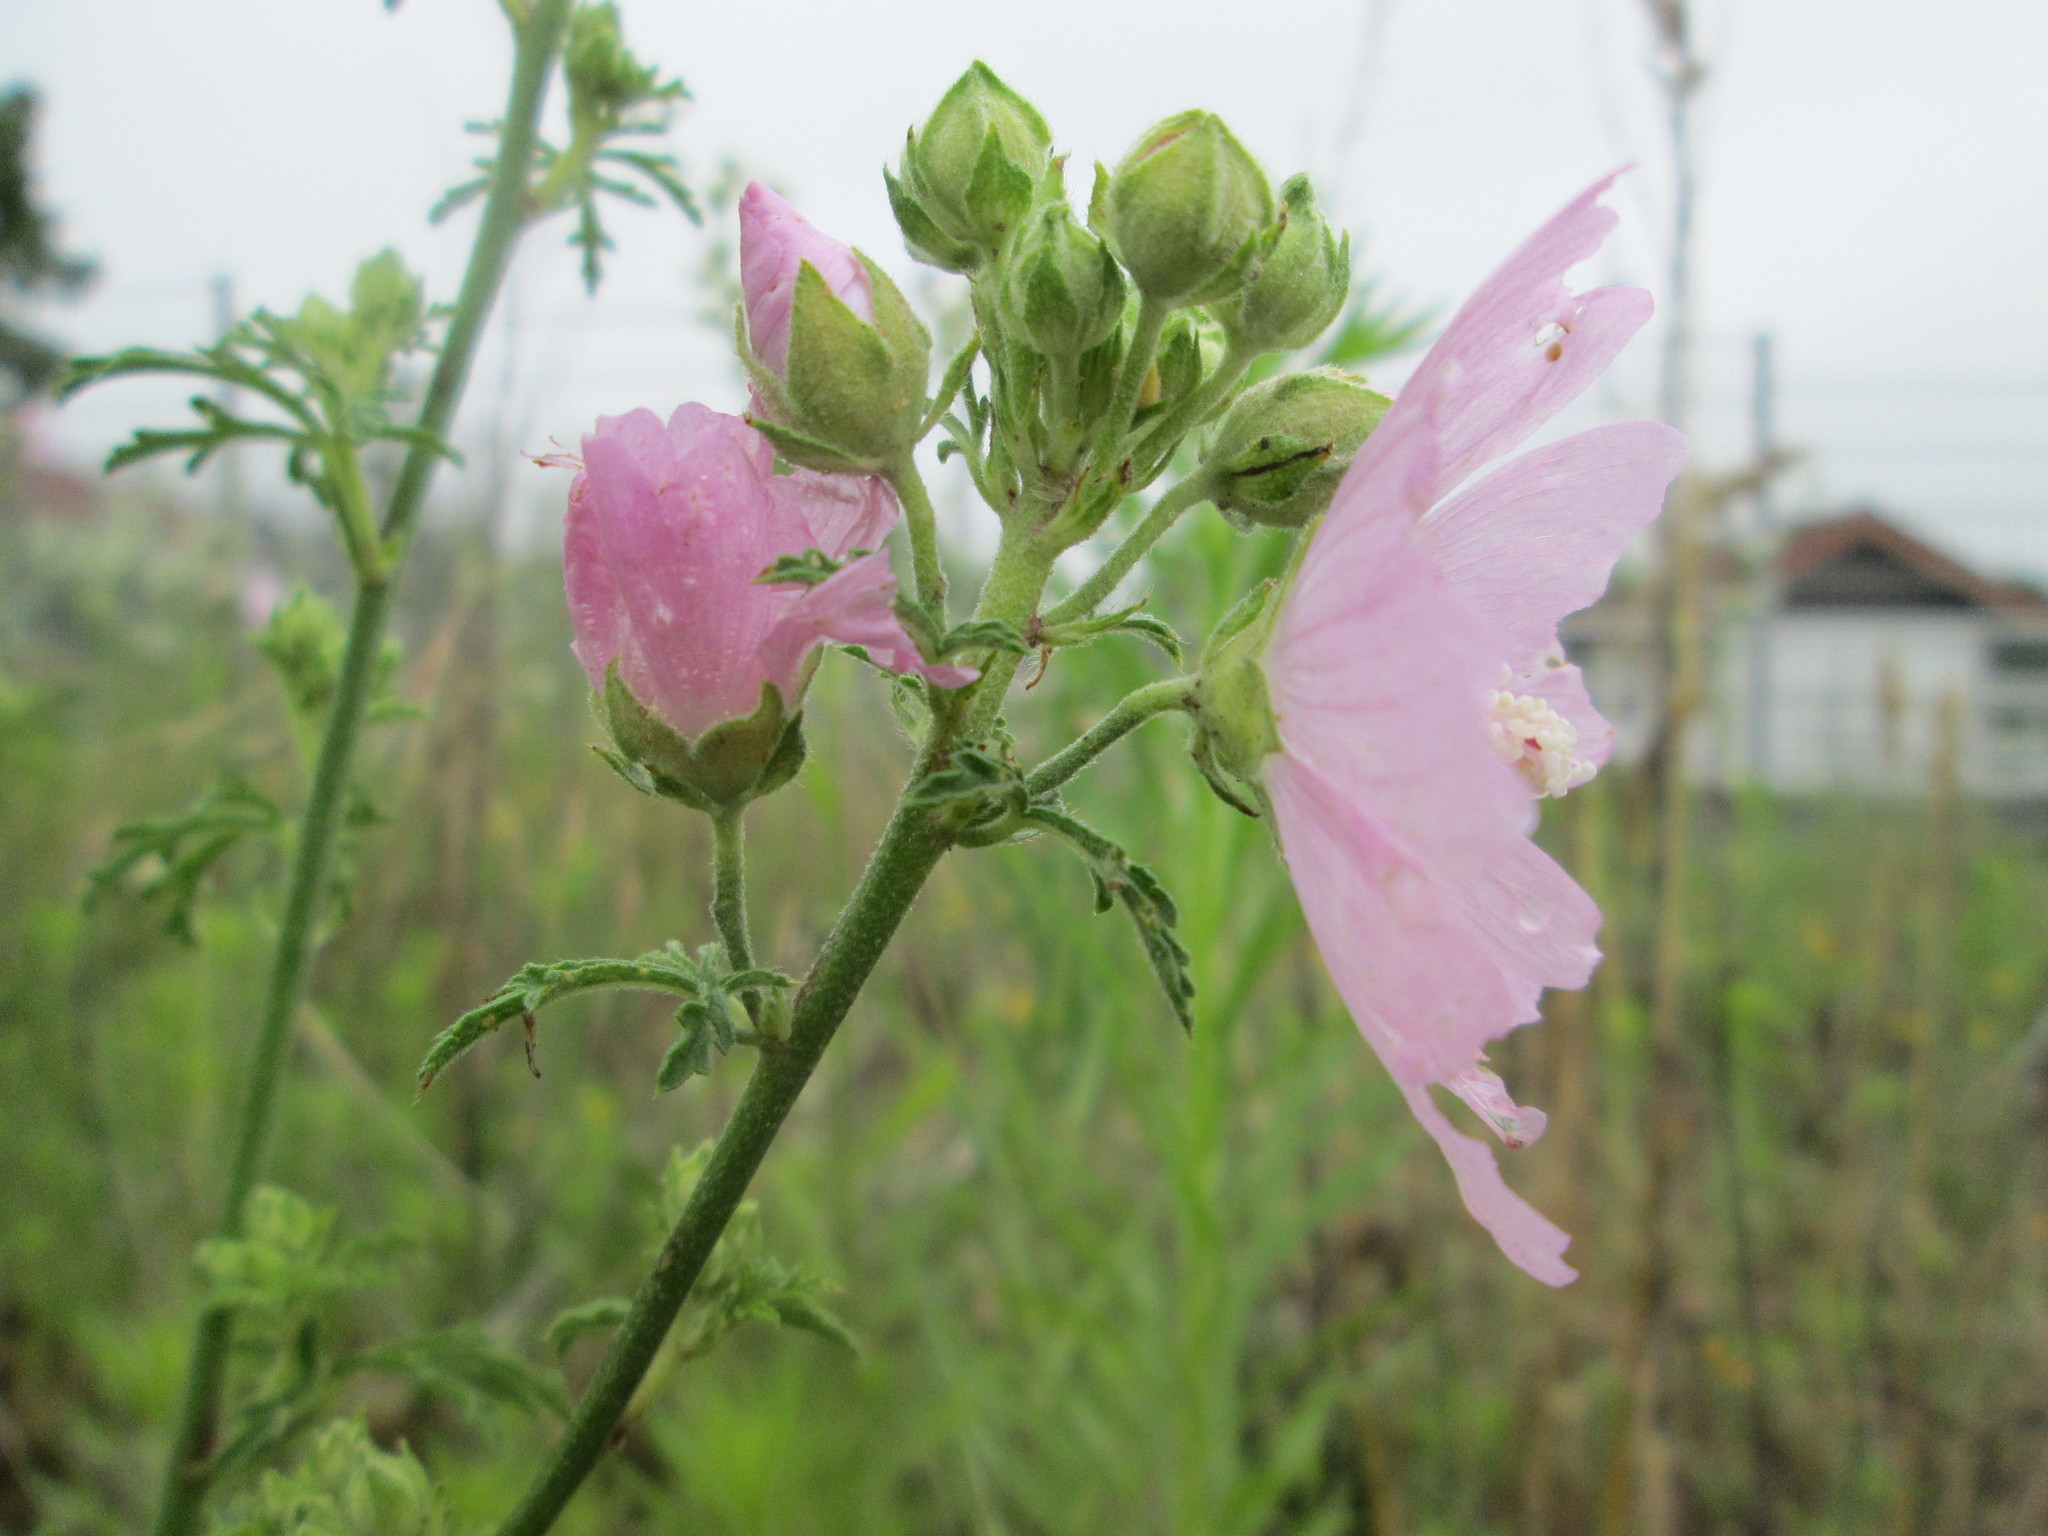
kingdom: Plantae
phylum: Tracheophyta
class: Magnoliopsida
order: Malvales
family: Malvaceae
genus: Malva
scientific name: Malva alcea
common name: Greater musk-mallow
